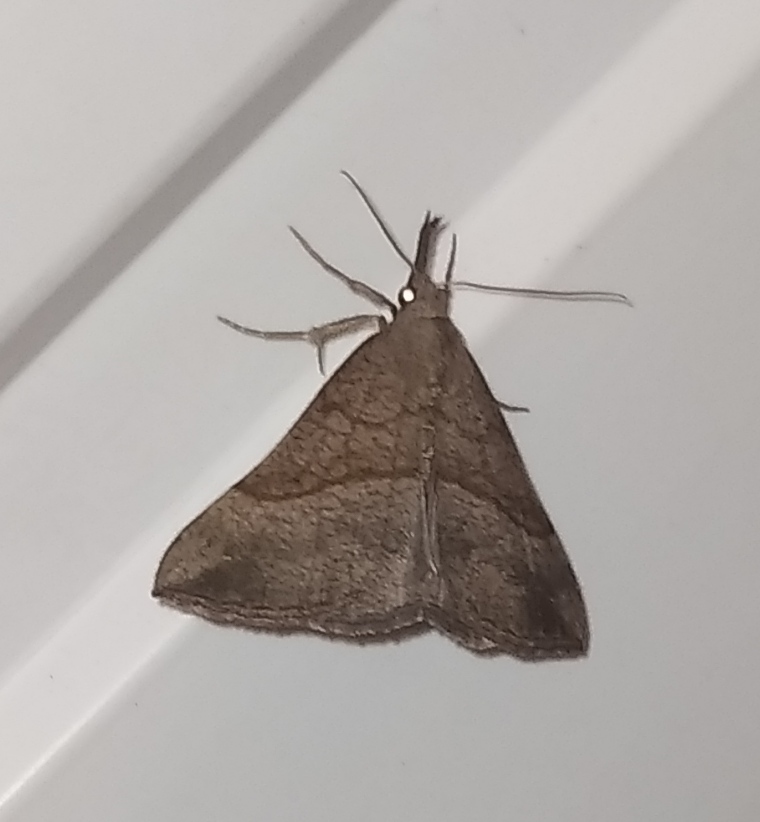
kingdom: Animalia
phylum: Arthropoda
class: Insecta
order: Lepidoptera
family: Erebidae
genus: Hypena
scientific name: Hypena proboscidalis
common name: Snout
